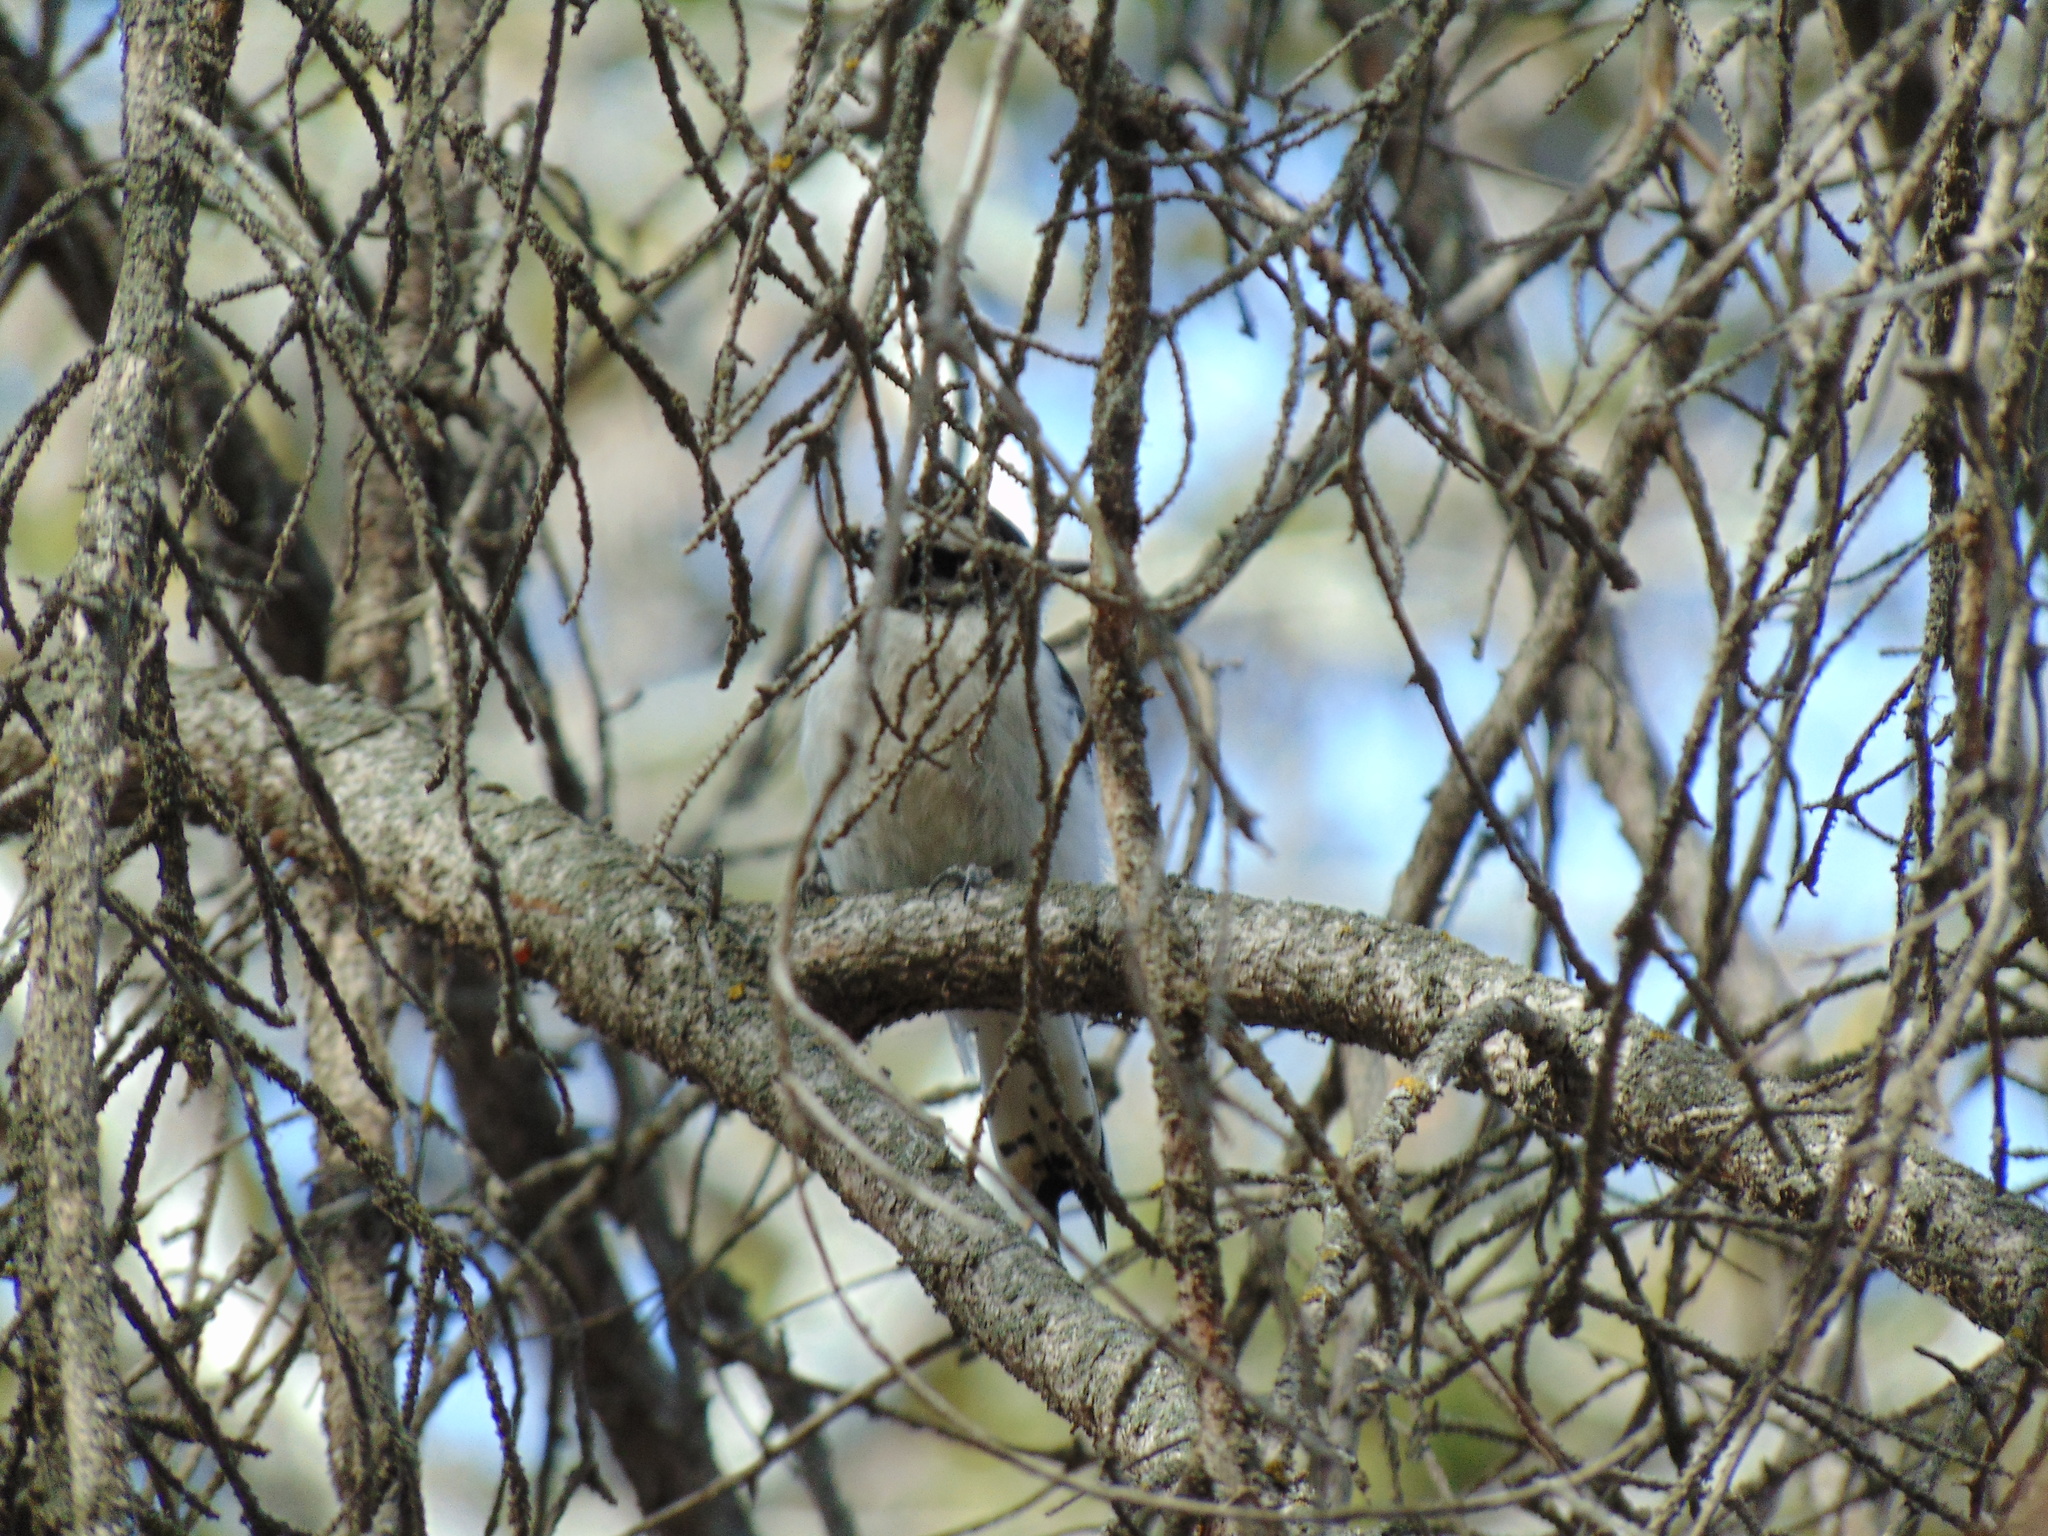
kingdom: Animalia
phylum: Chordata
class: Aves
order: Piciformes
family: Picidae
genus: Dryobates
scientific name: Dryobates pubescens
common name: Downy woodpecker
